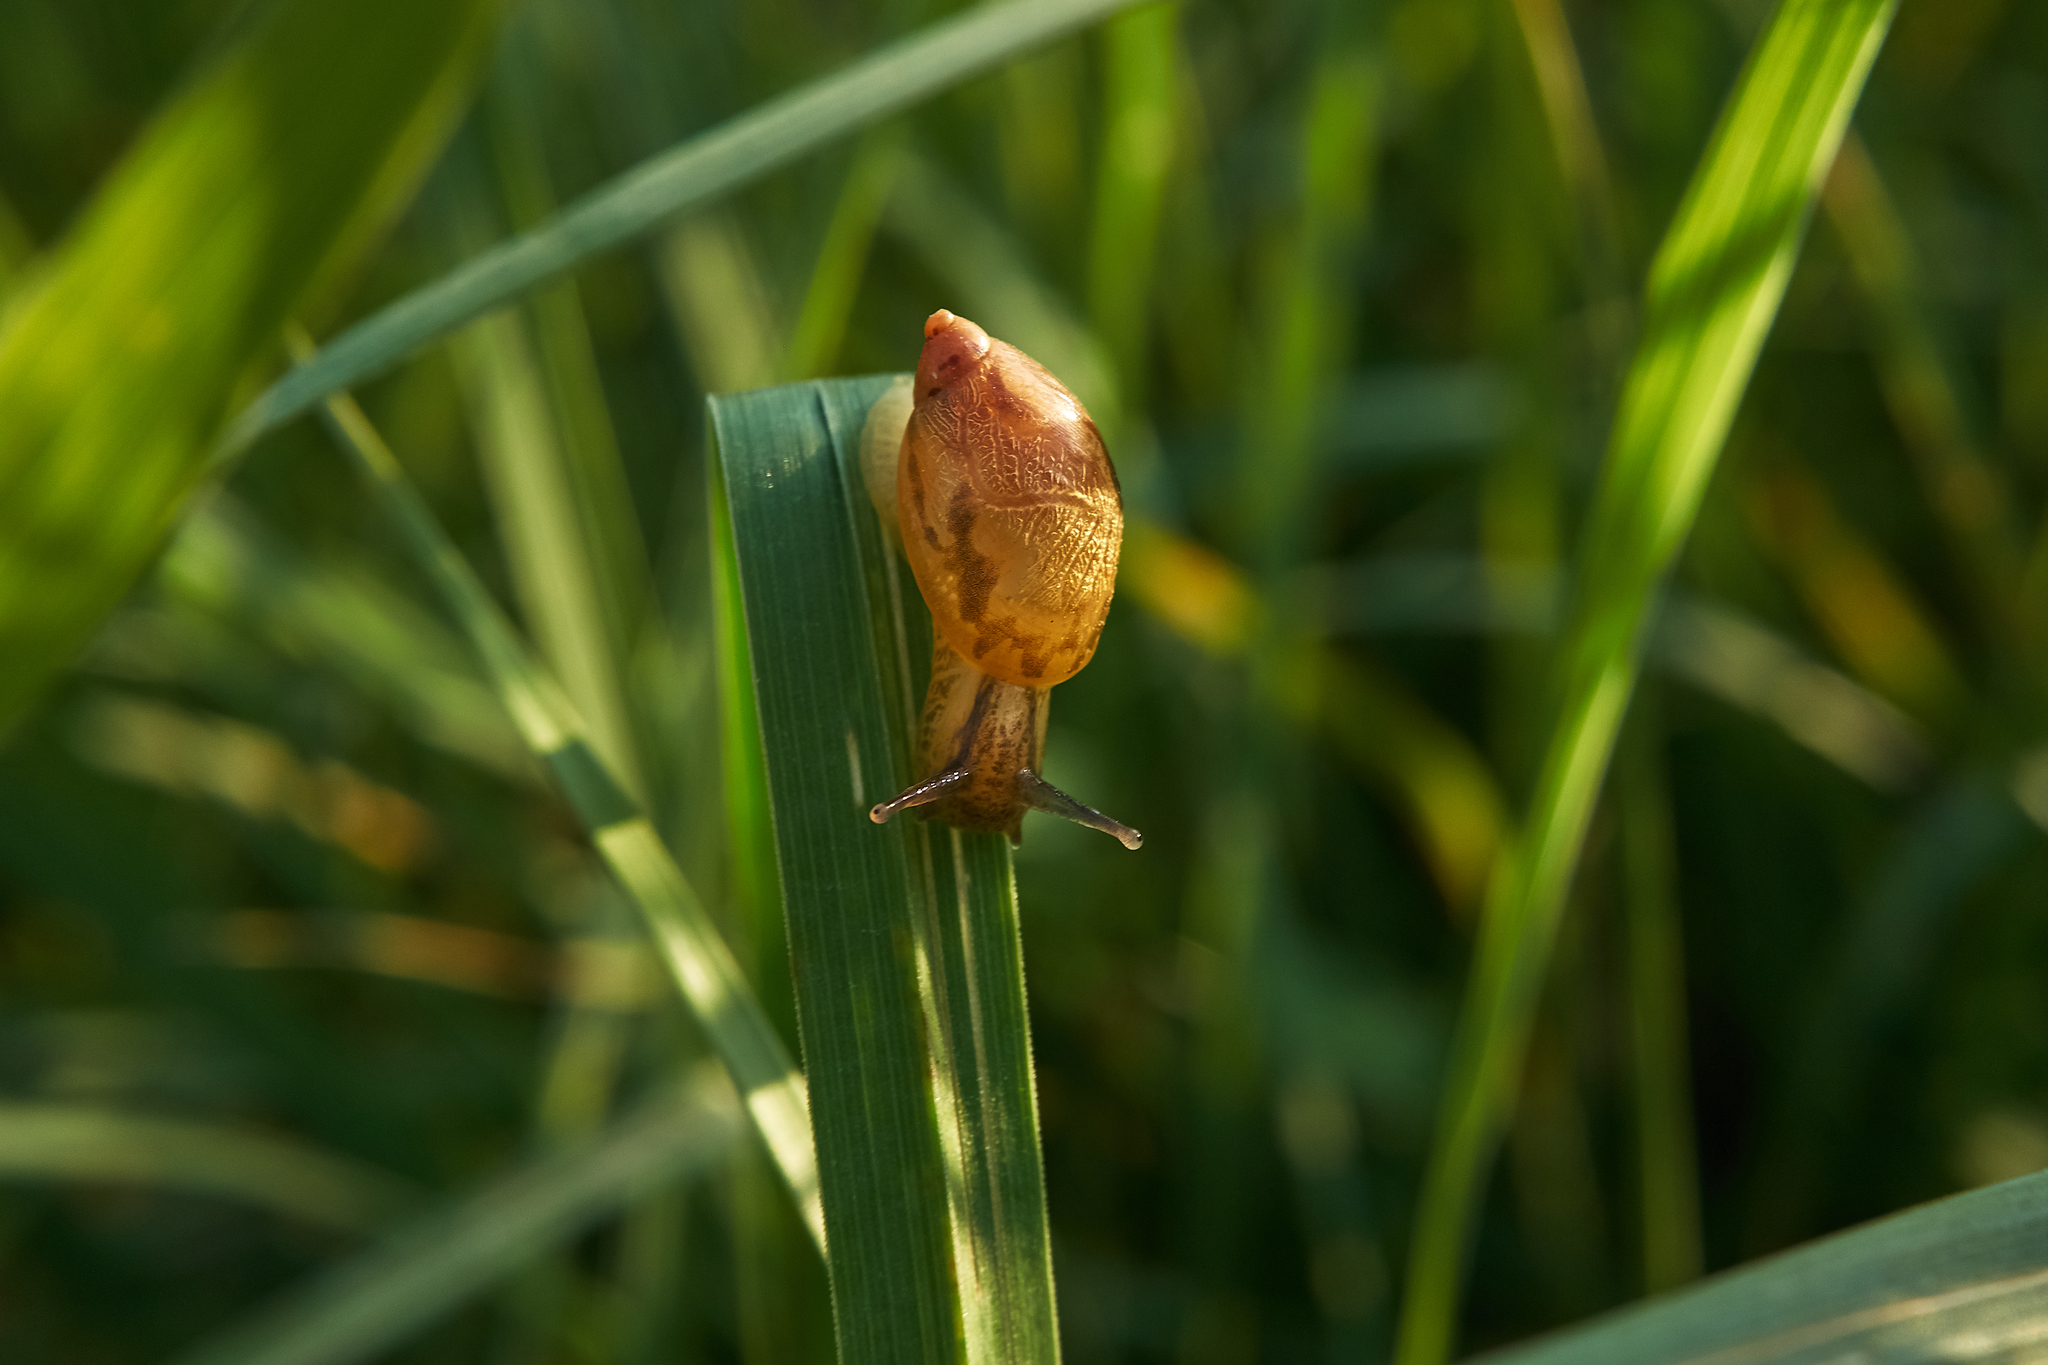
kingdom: Animalia
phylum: Mollusca
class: Gastropoda
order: Stylommatophora
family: Succineidae
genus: Succinea
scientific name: Succinea putris
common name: European ambersnail
